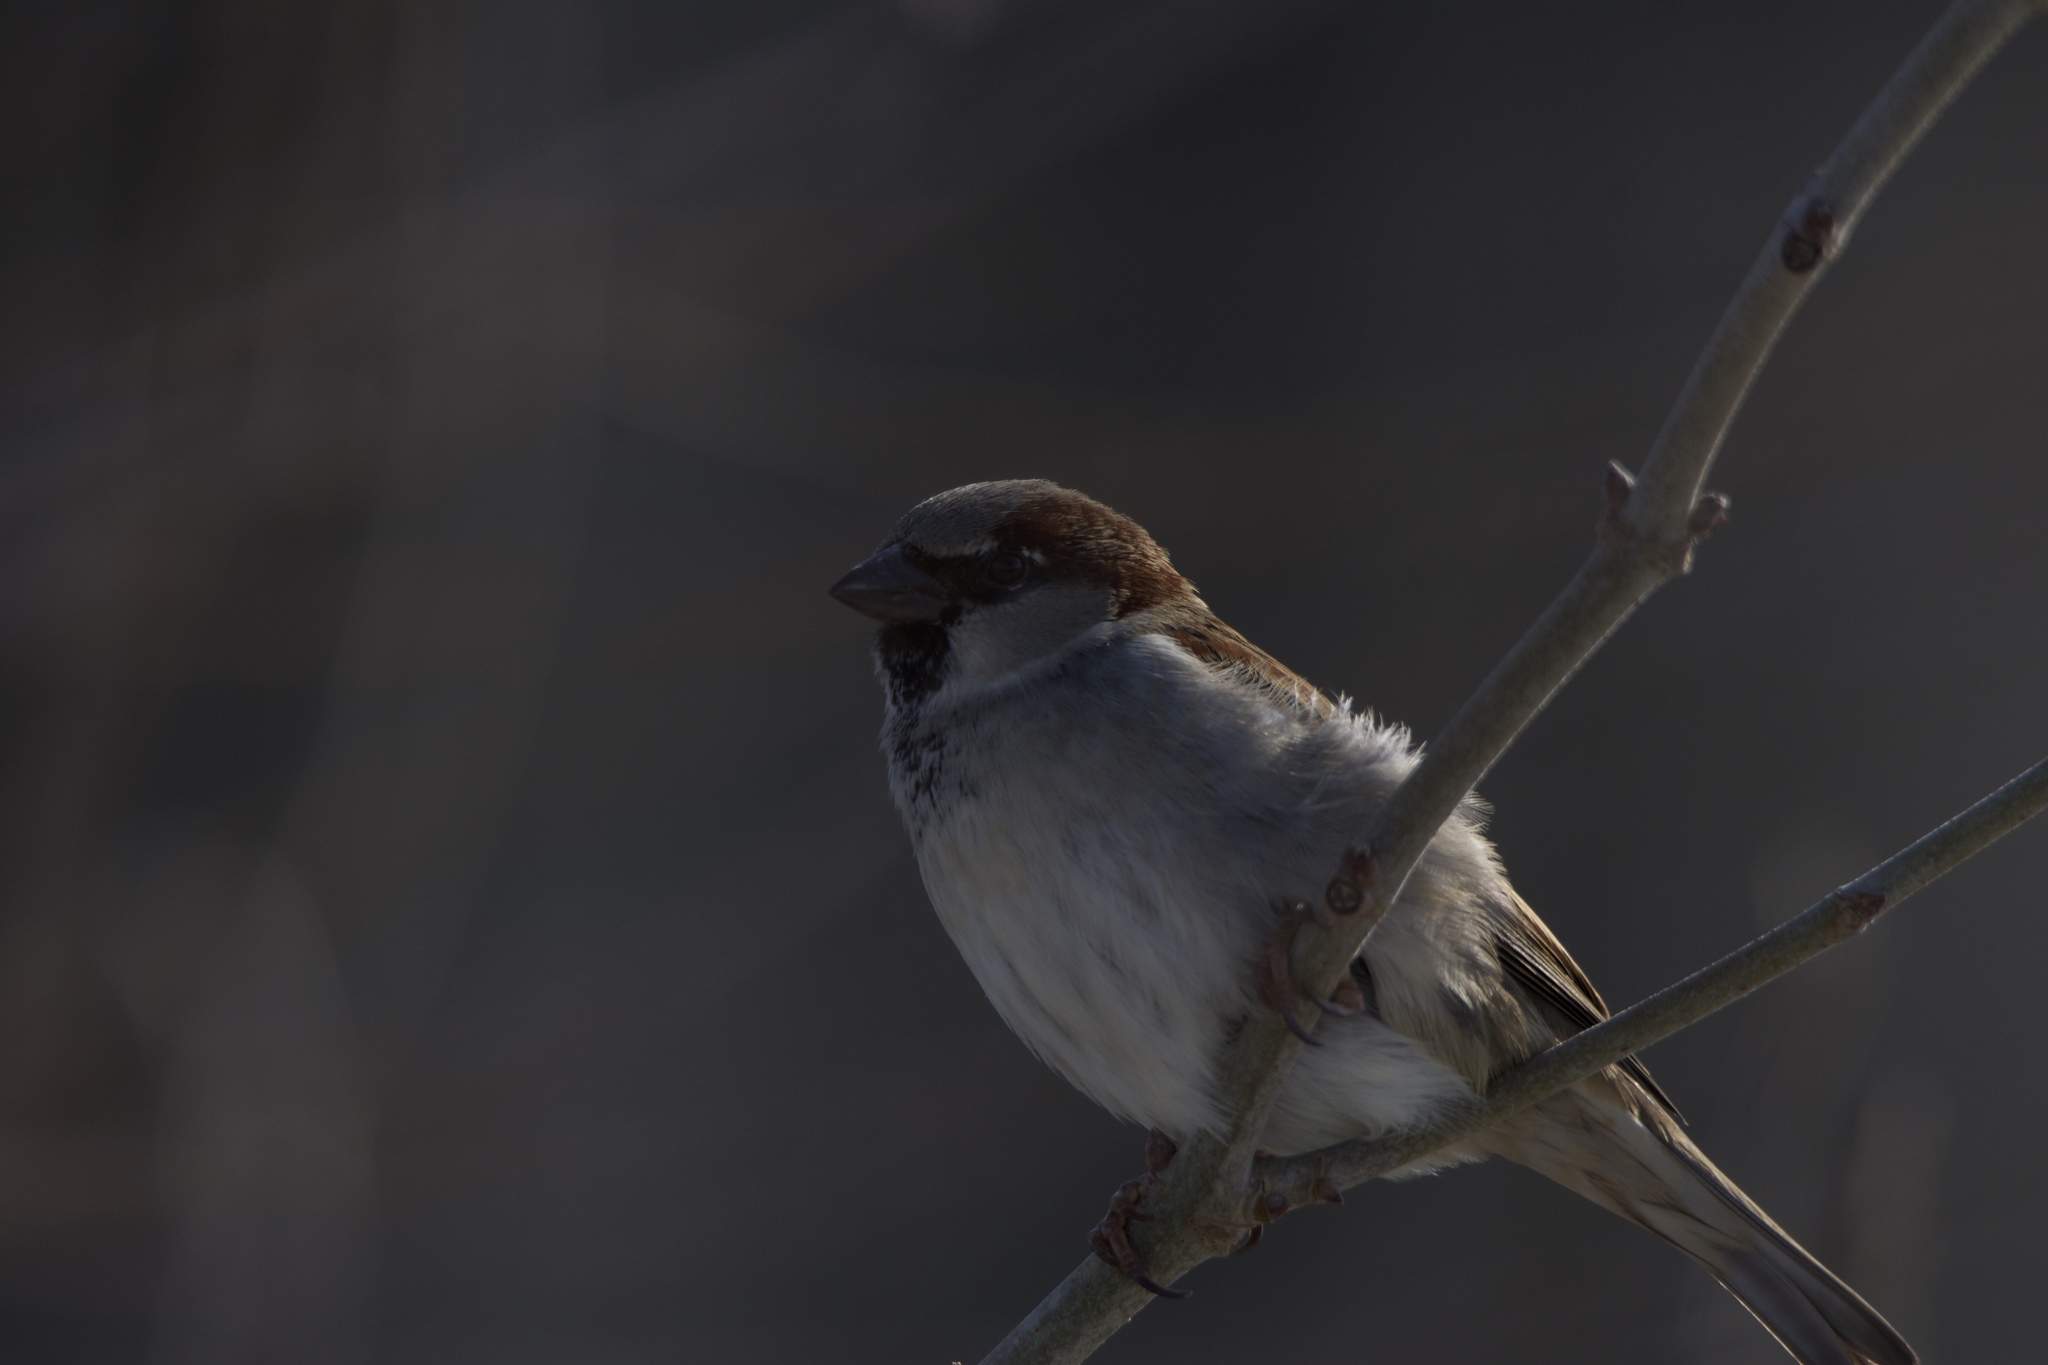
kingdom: Animalia
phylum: Chordata
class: Aves
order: Passeriformes
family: Passeridae
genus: Passer
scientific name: Passer domesticus
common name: House sparrow
